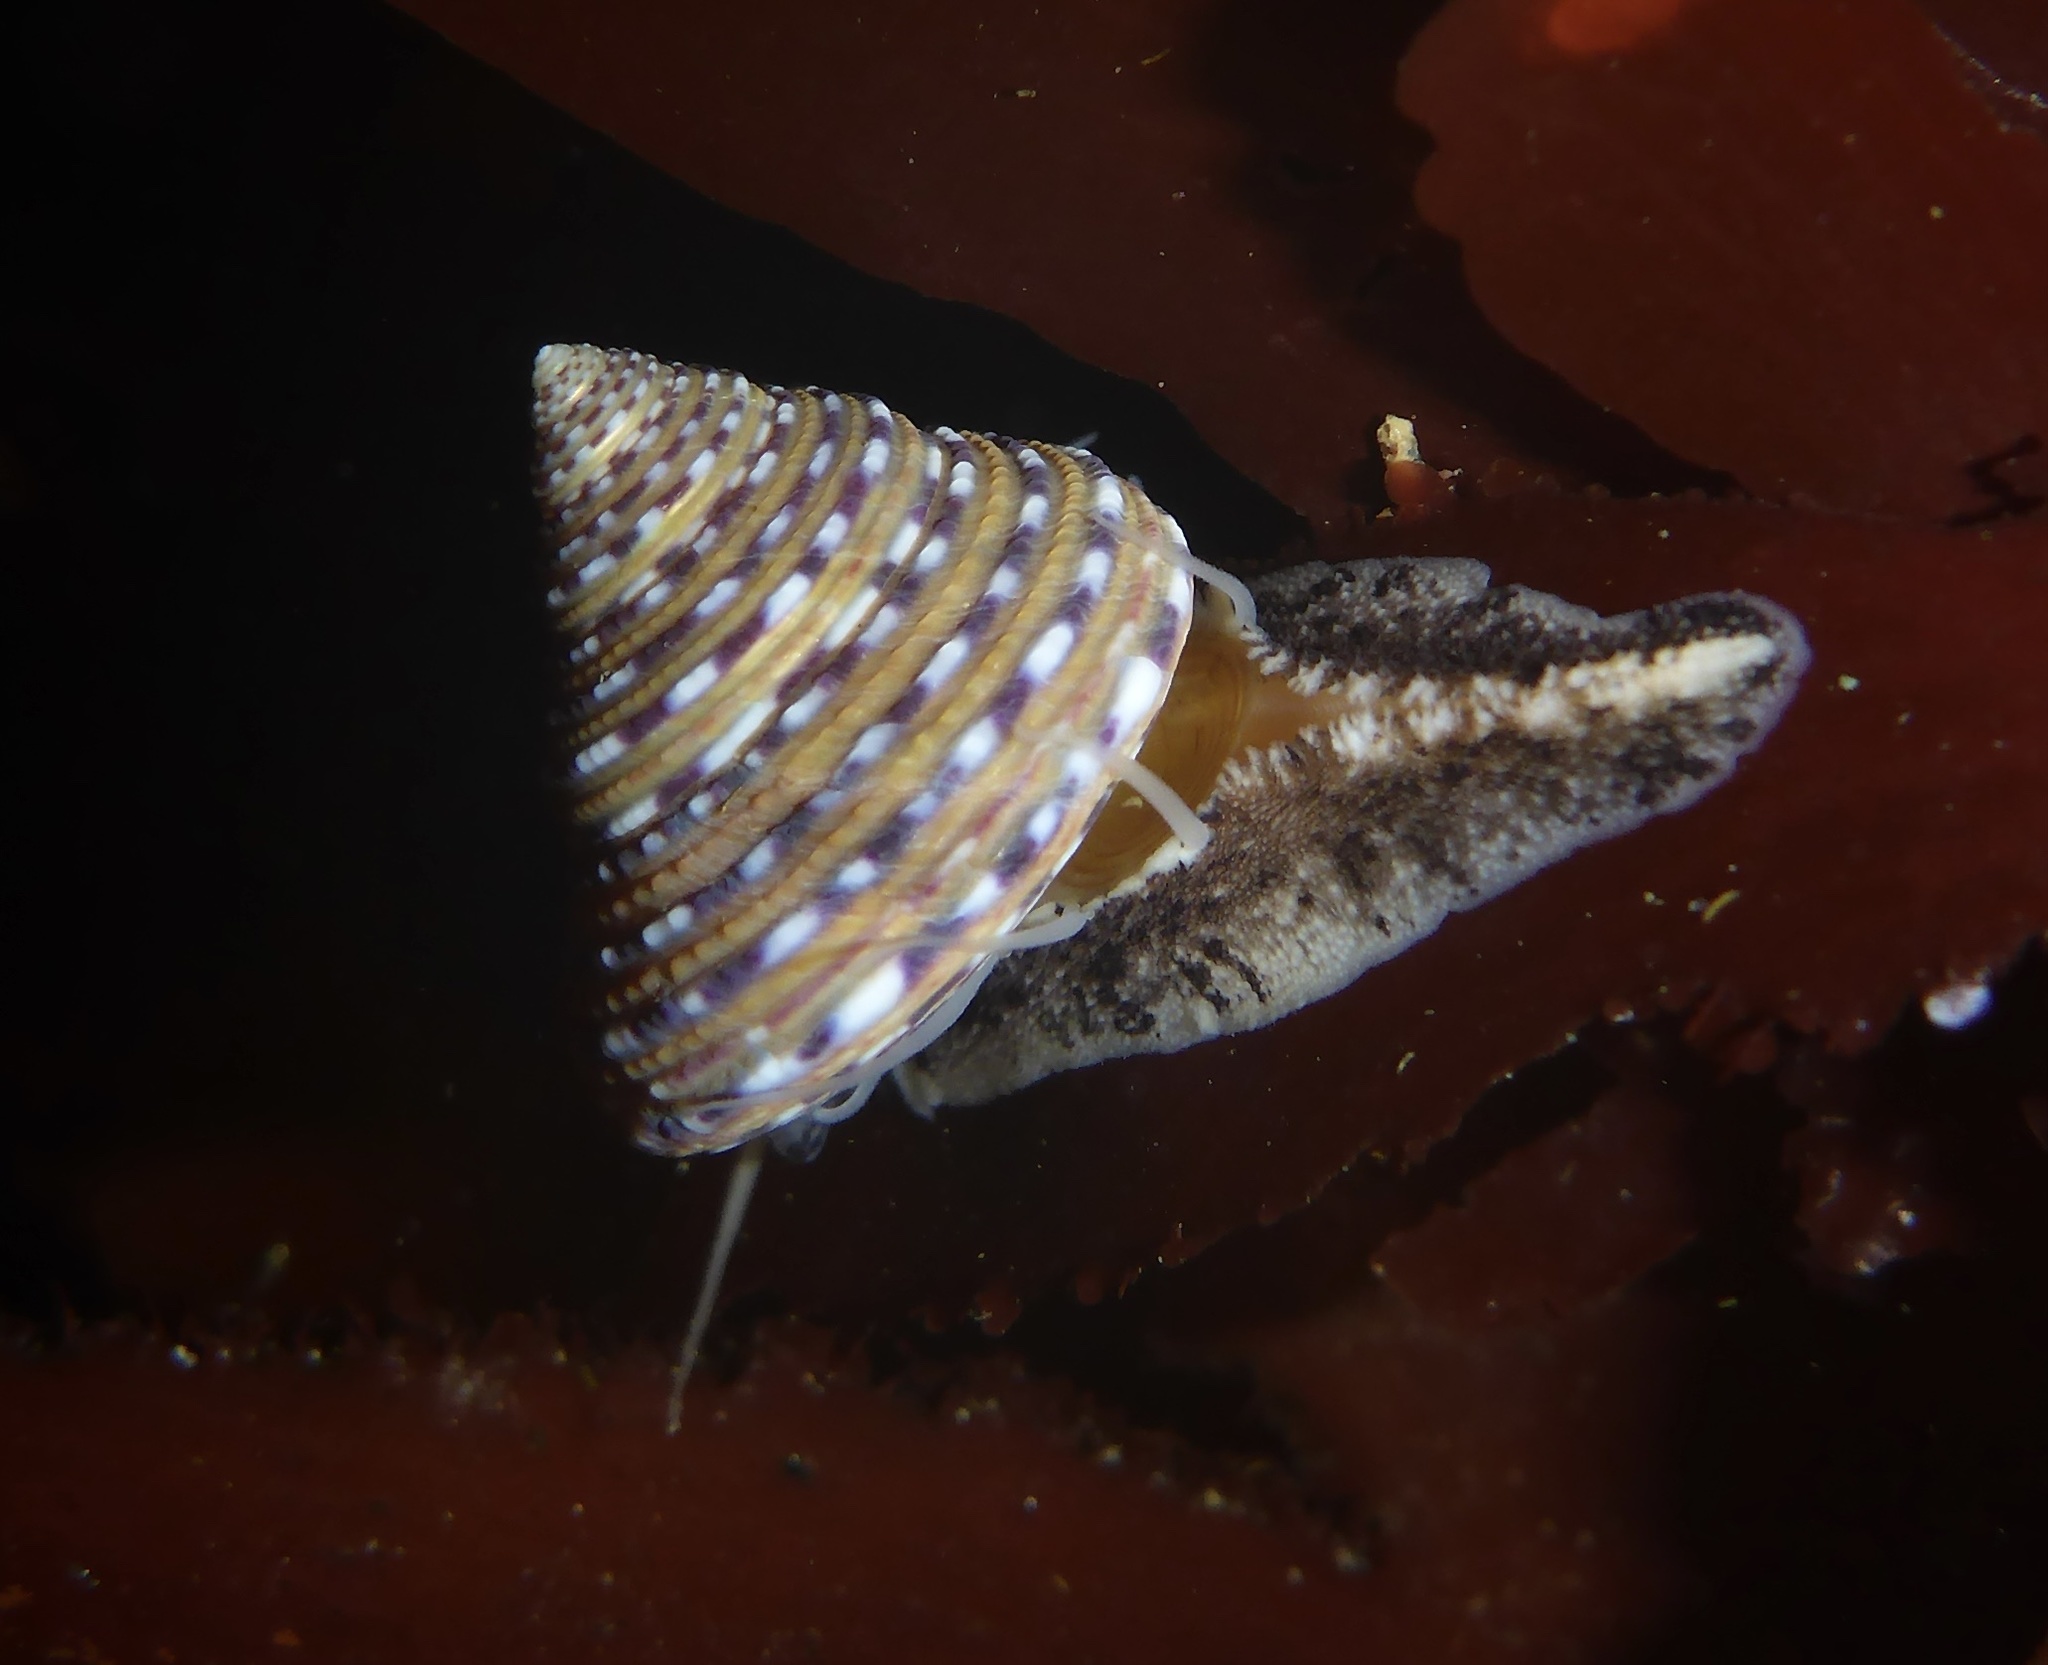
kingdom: Animalia
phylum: Mollusca
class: Gastropoda
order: Trochida
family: Calliostomatidae
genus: Calliostoma
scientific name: Calliostoma tricolor
